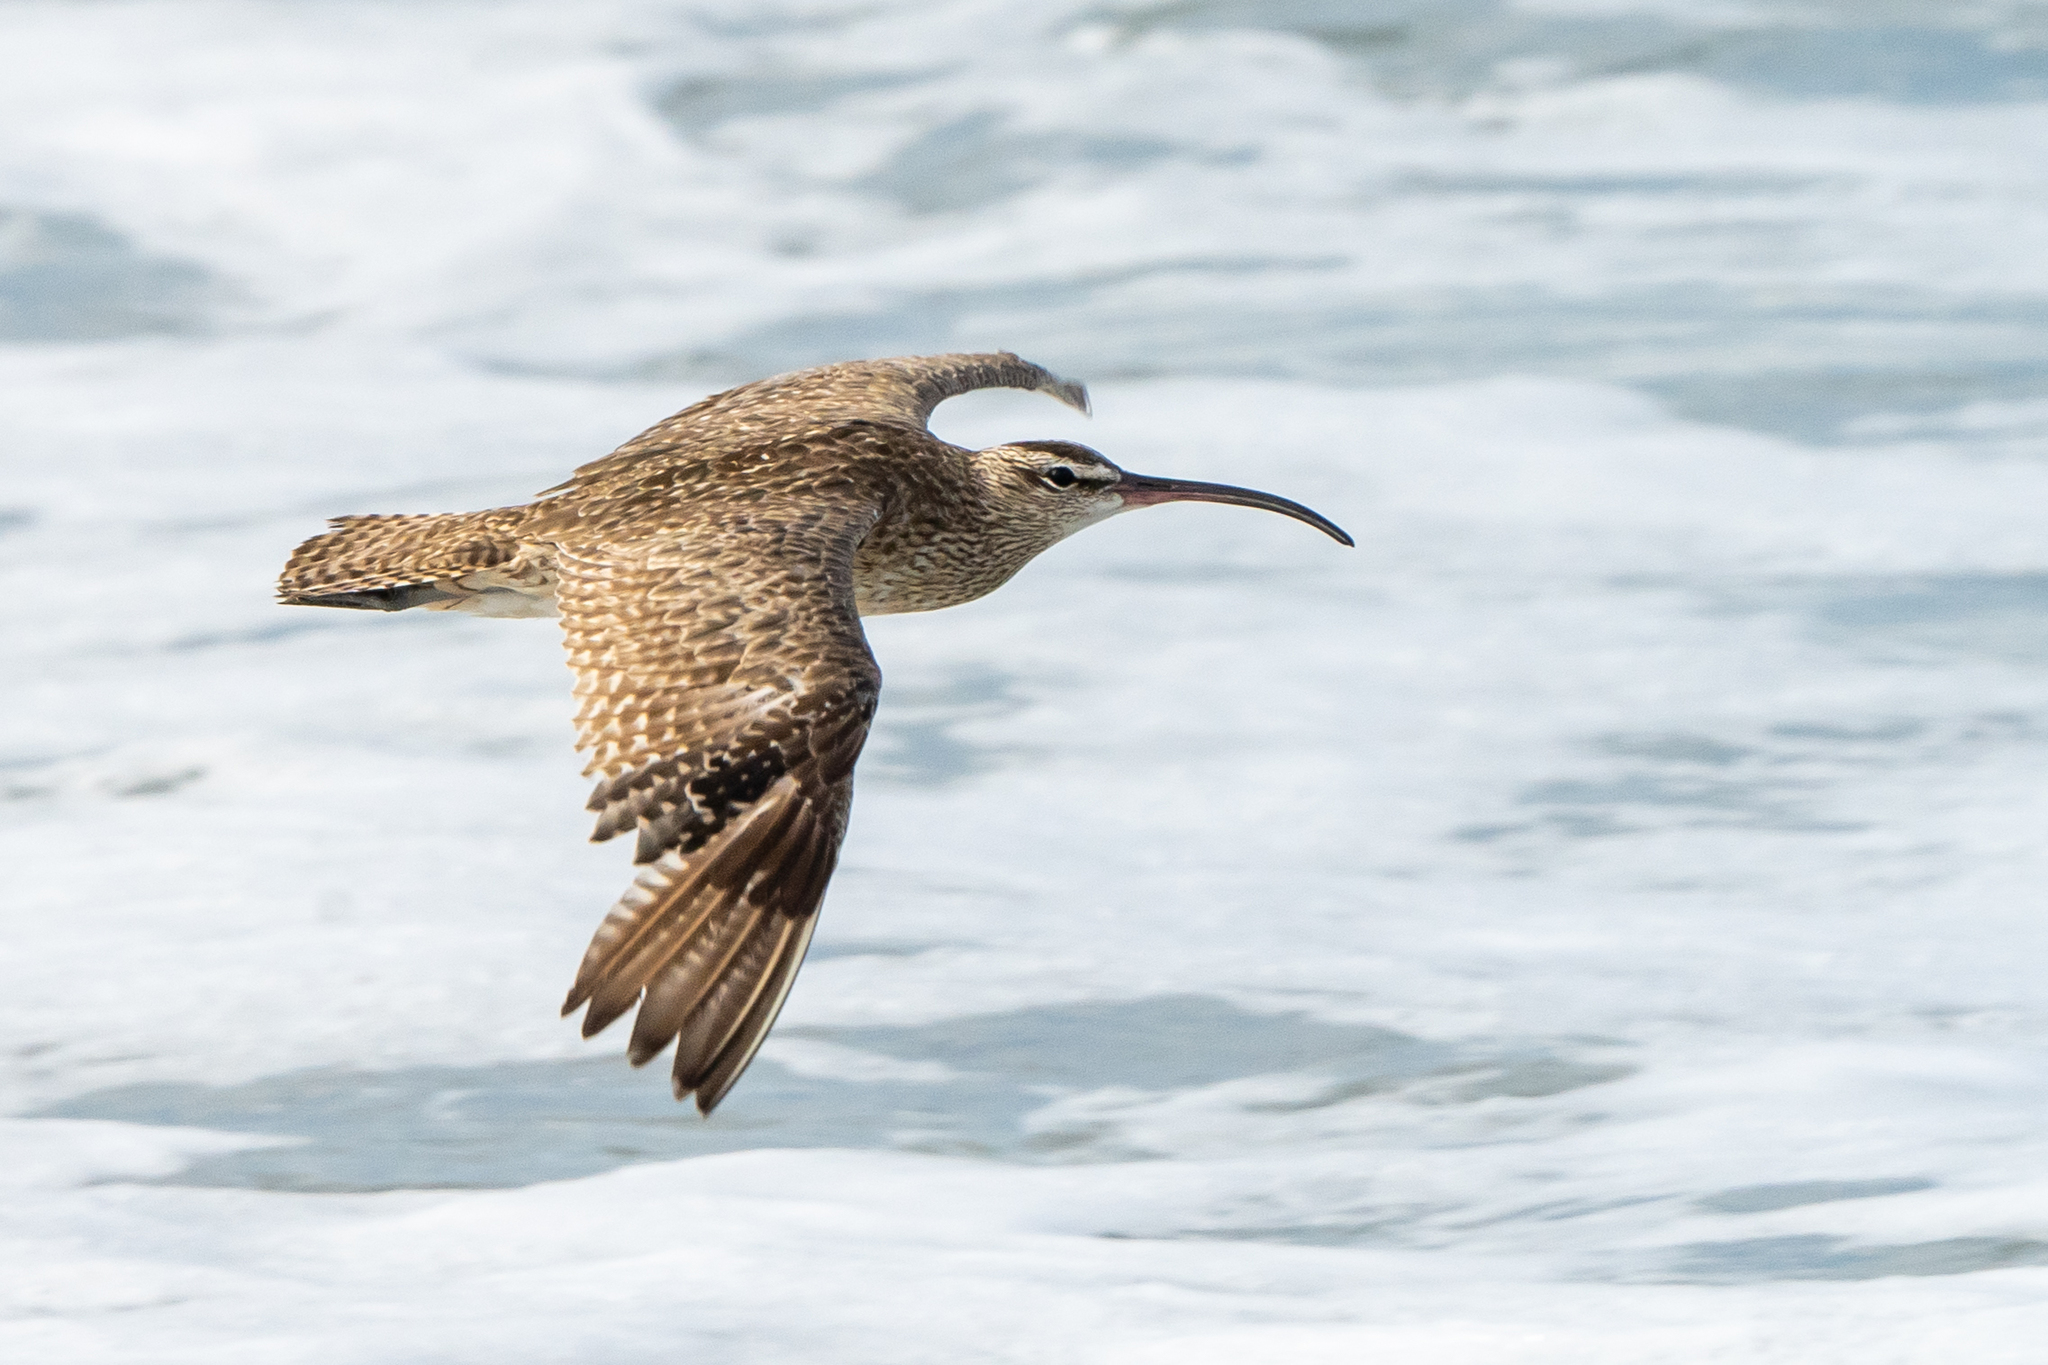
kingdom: Animalia
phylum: Chordata
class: Aves
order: Charadriiformes
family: Scolopacidae
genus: Numenius
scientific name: Numenius phaeopus
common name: Whimbrel
